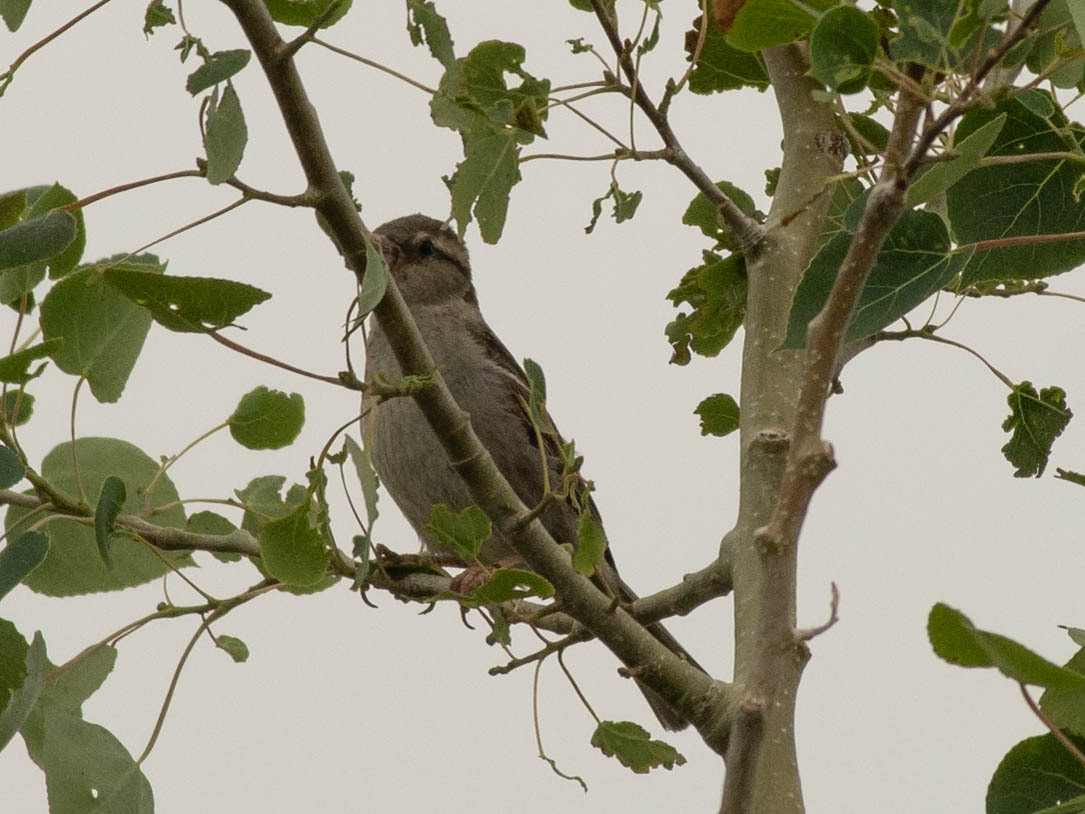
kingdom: Animalia
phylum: Chordata
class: Aves
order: Passeriformes
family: Passeridae
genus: Passer
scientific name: Passer domesticus
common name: House sparrow
